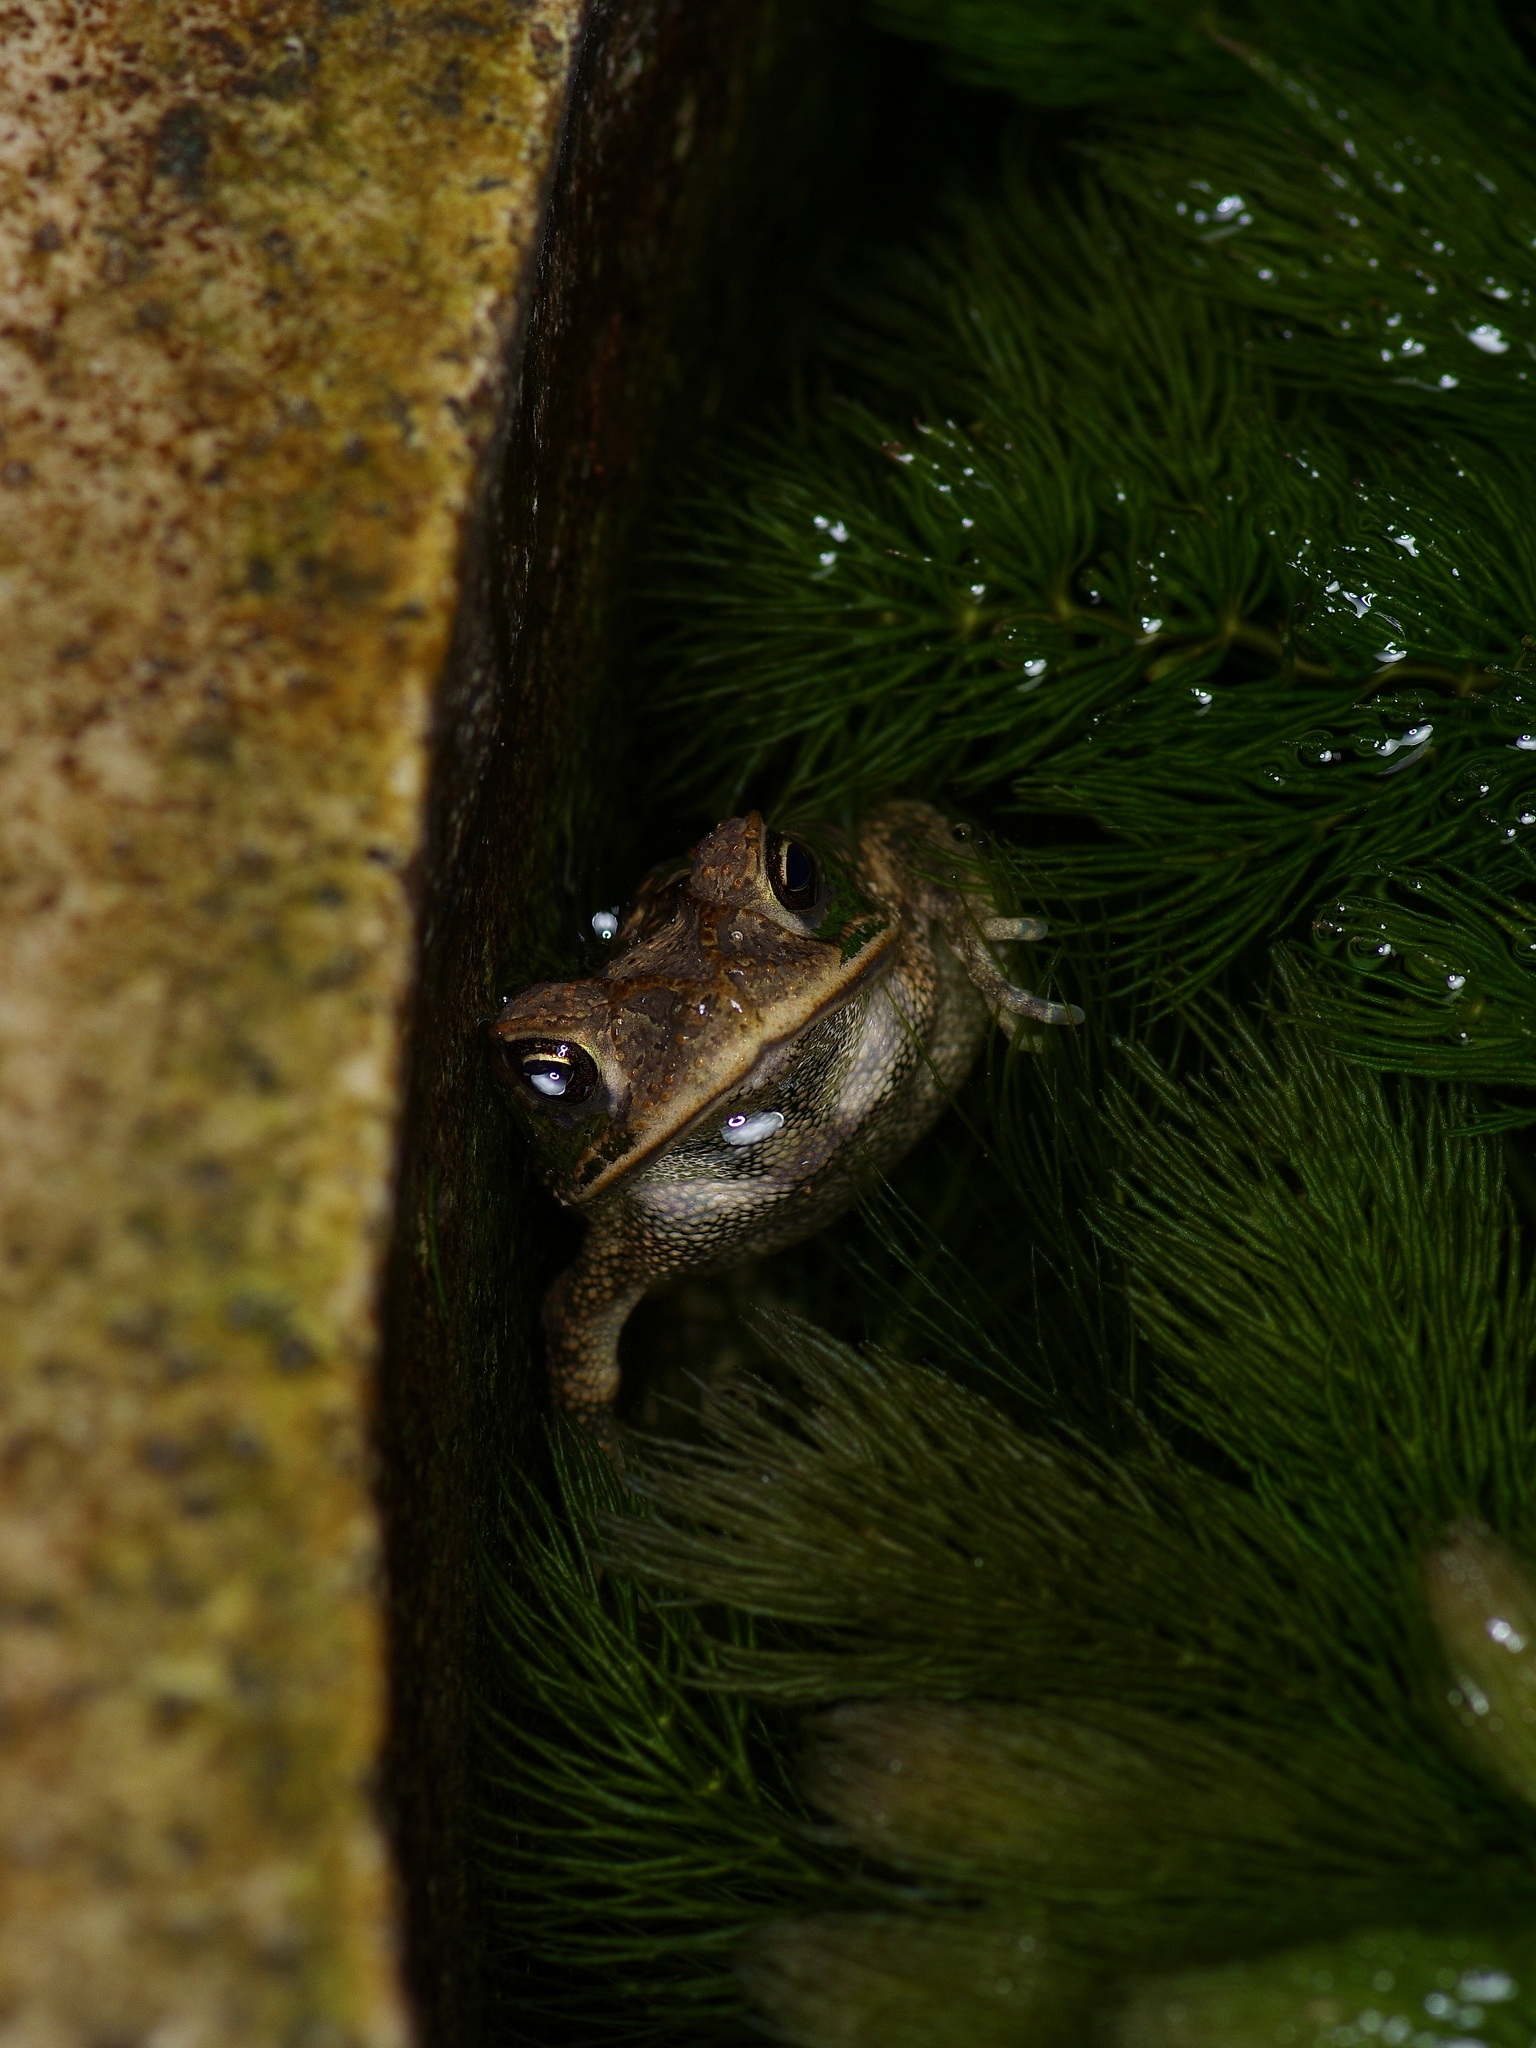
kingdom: Animalia
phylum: Chordata
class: Amphibia
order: Anura
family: Bufonidae
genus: Incilius
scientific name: Incilius nebulifer
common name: Gulf coast toad
